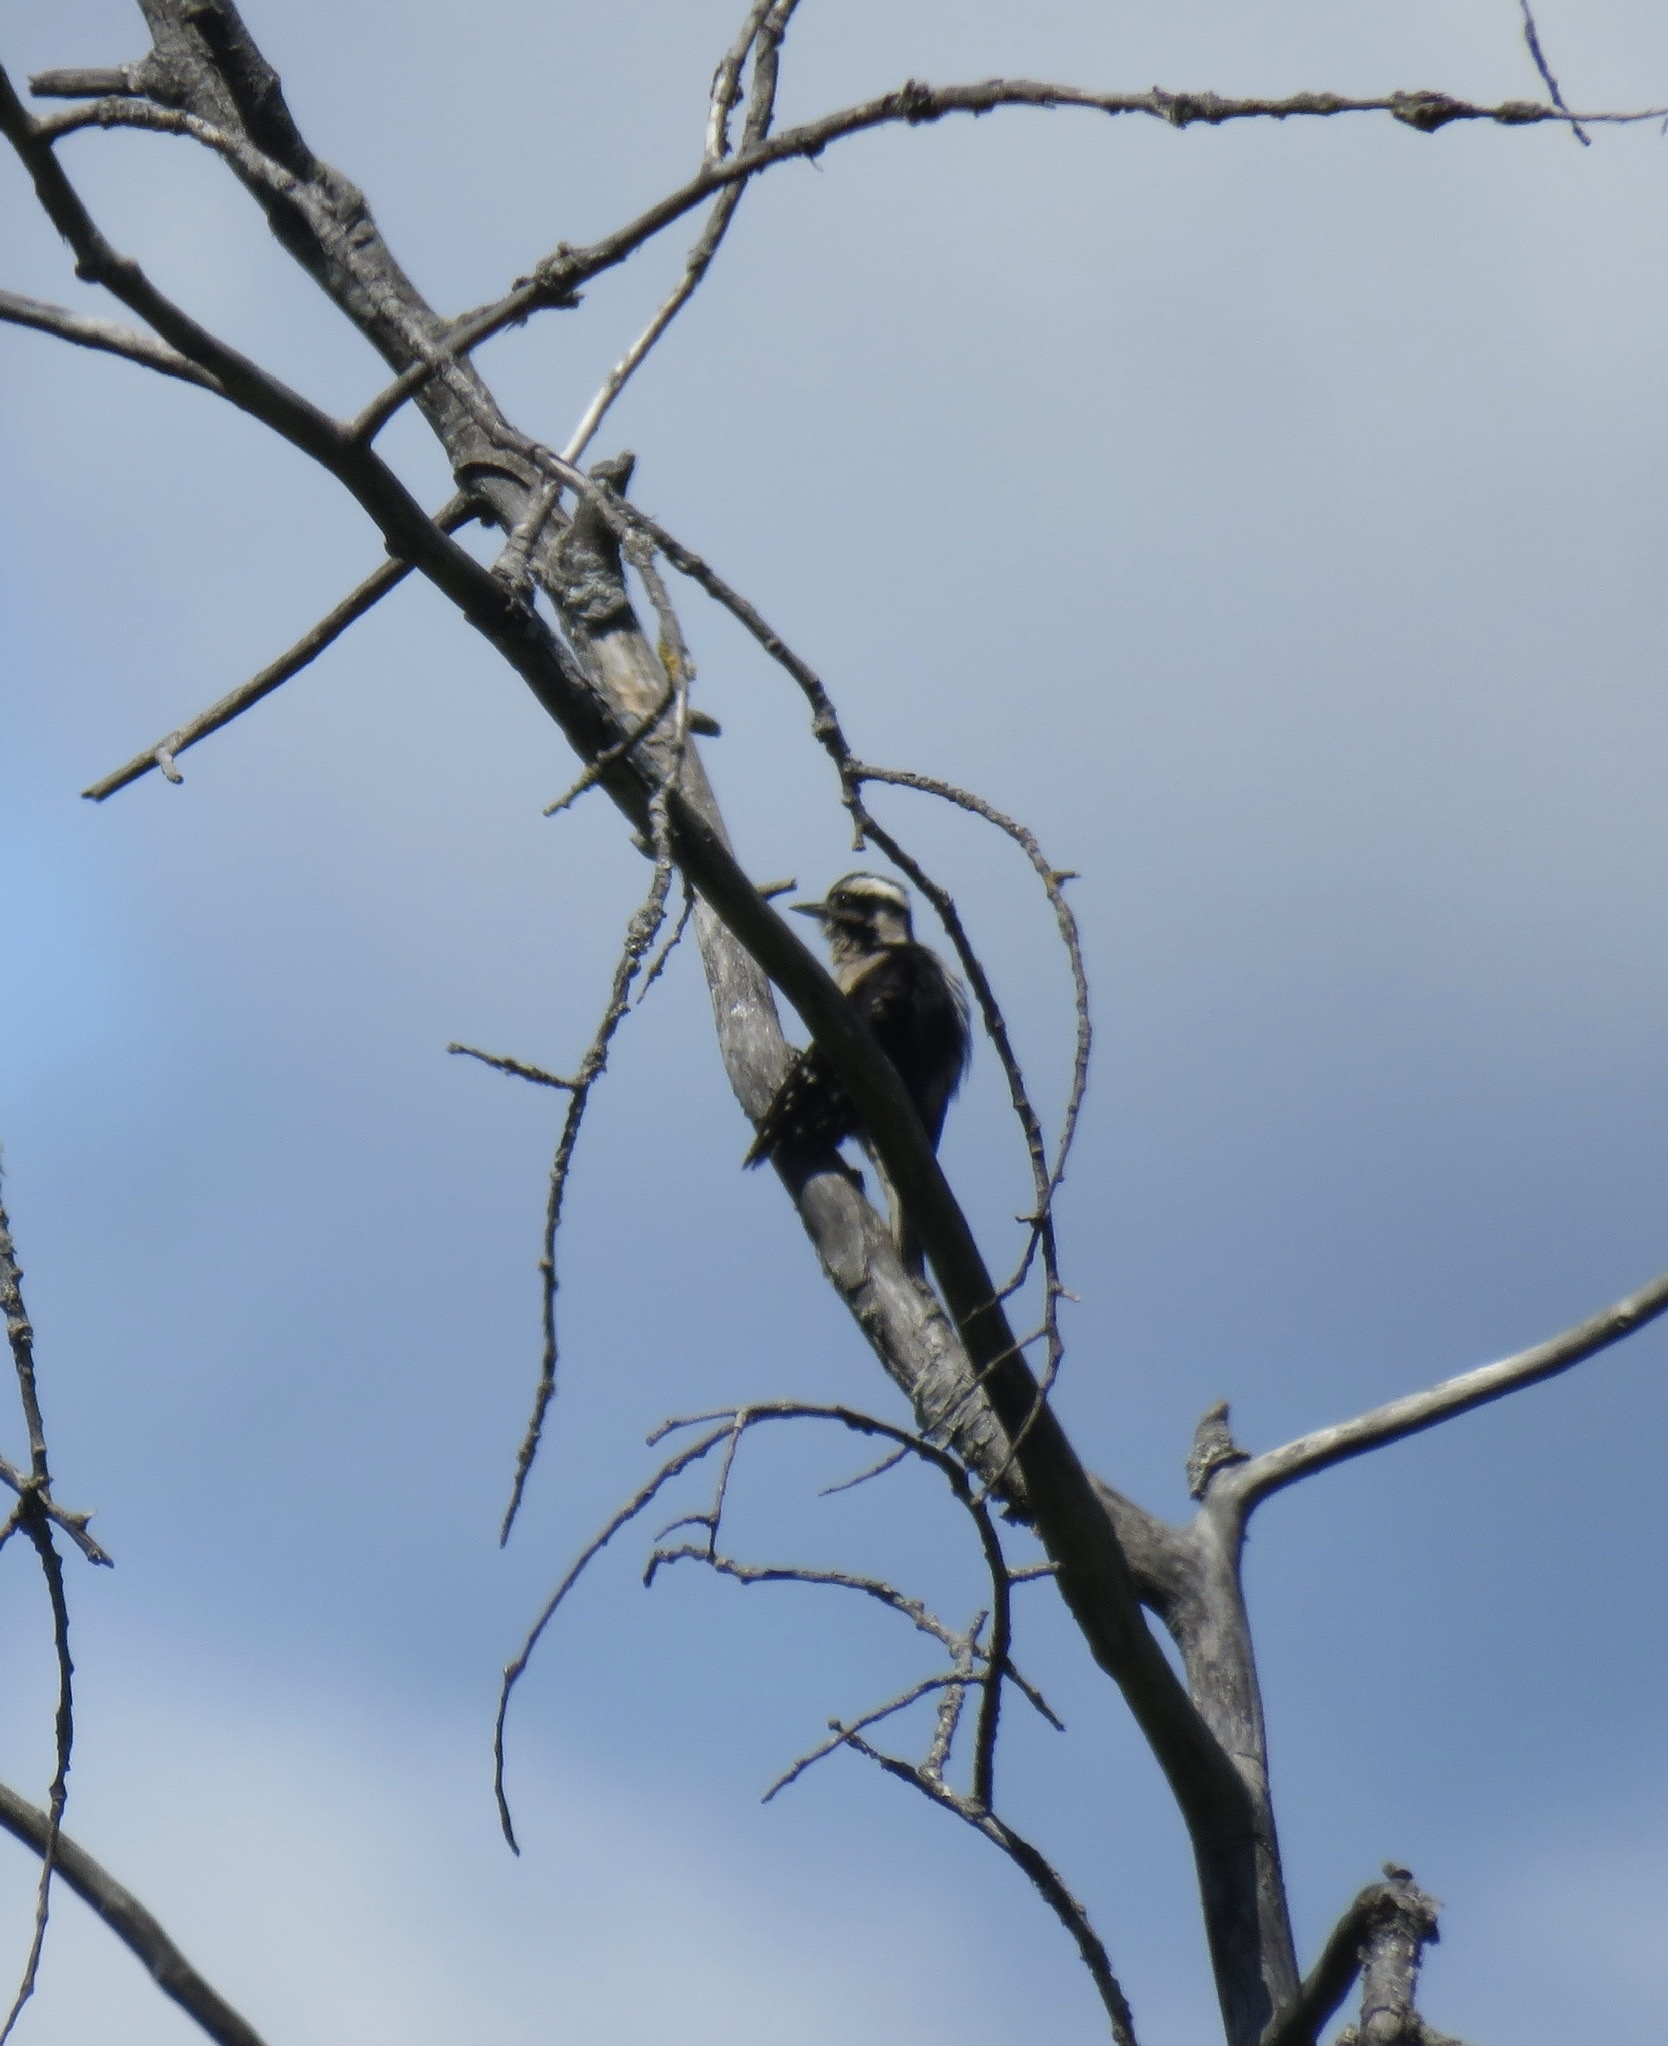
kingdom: Animalia
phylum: Chordata
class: Aves
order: Piciformes
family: Picidae
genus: Dryobates
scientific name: Dryobates pubescens
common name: Downy woodpecker
